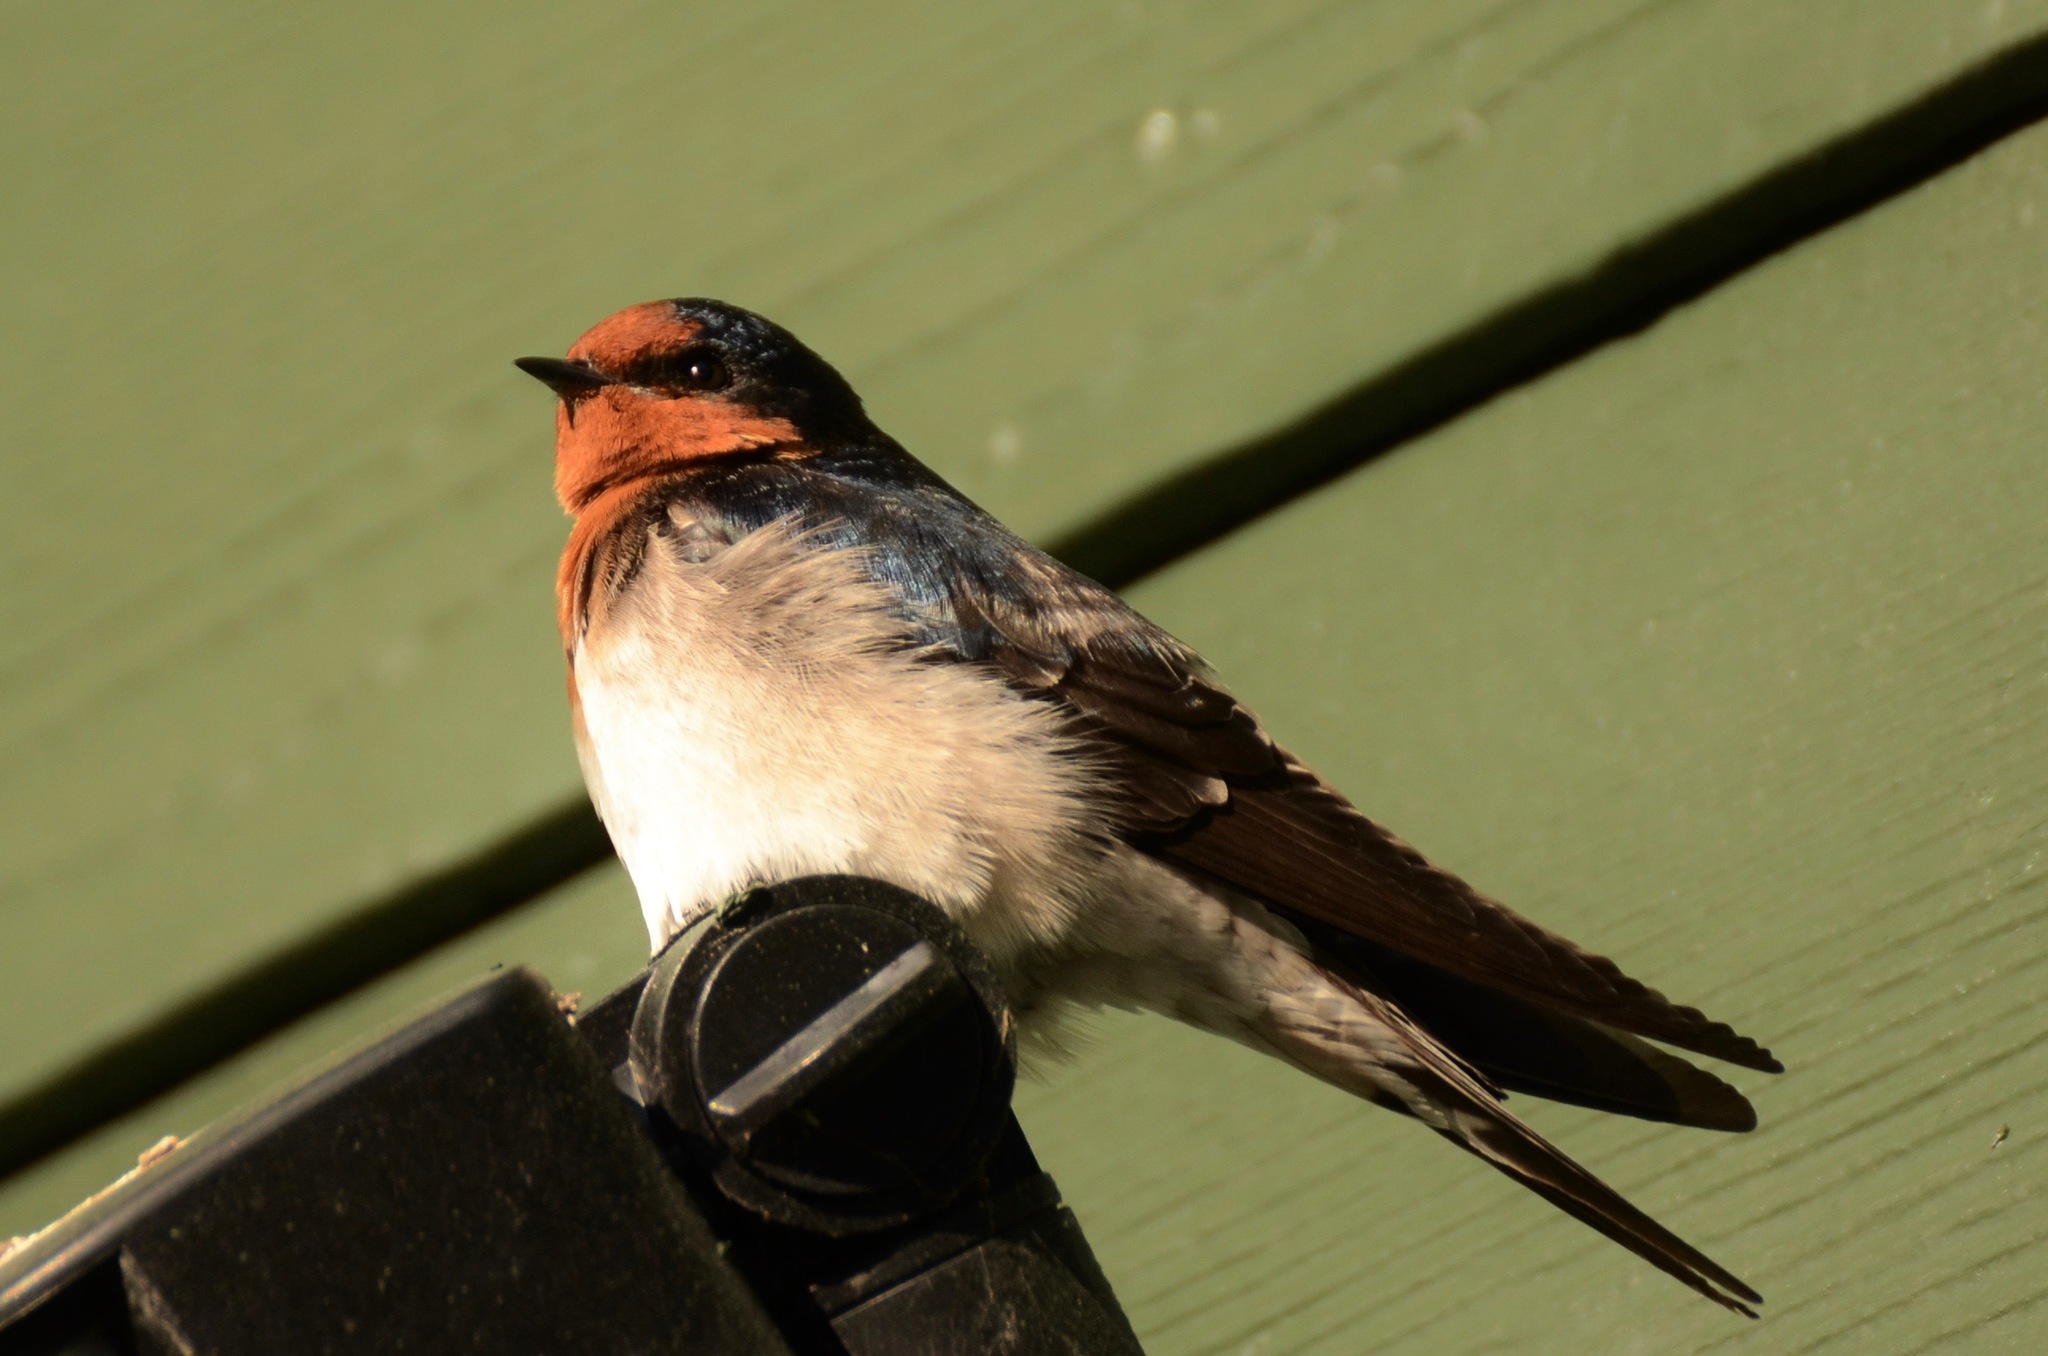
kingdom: Animalia
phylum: Chordata
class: Aves
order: Passeriformes
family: Hirundinidae
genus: Hirundo
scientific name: Hirundo neoxena
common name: Welcome swallow
